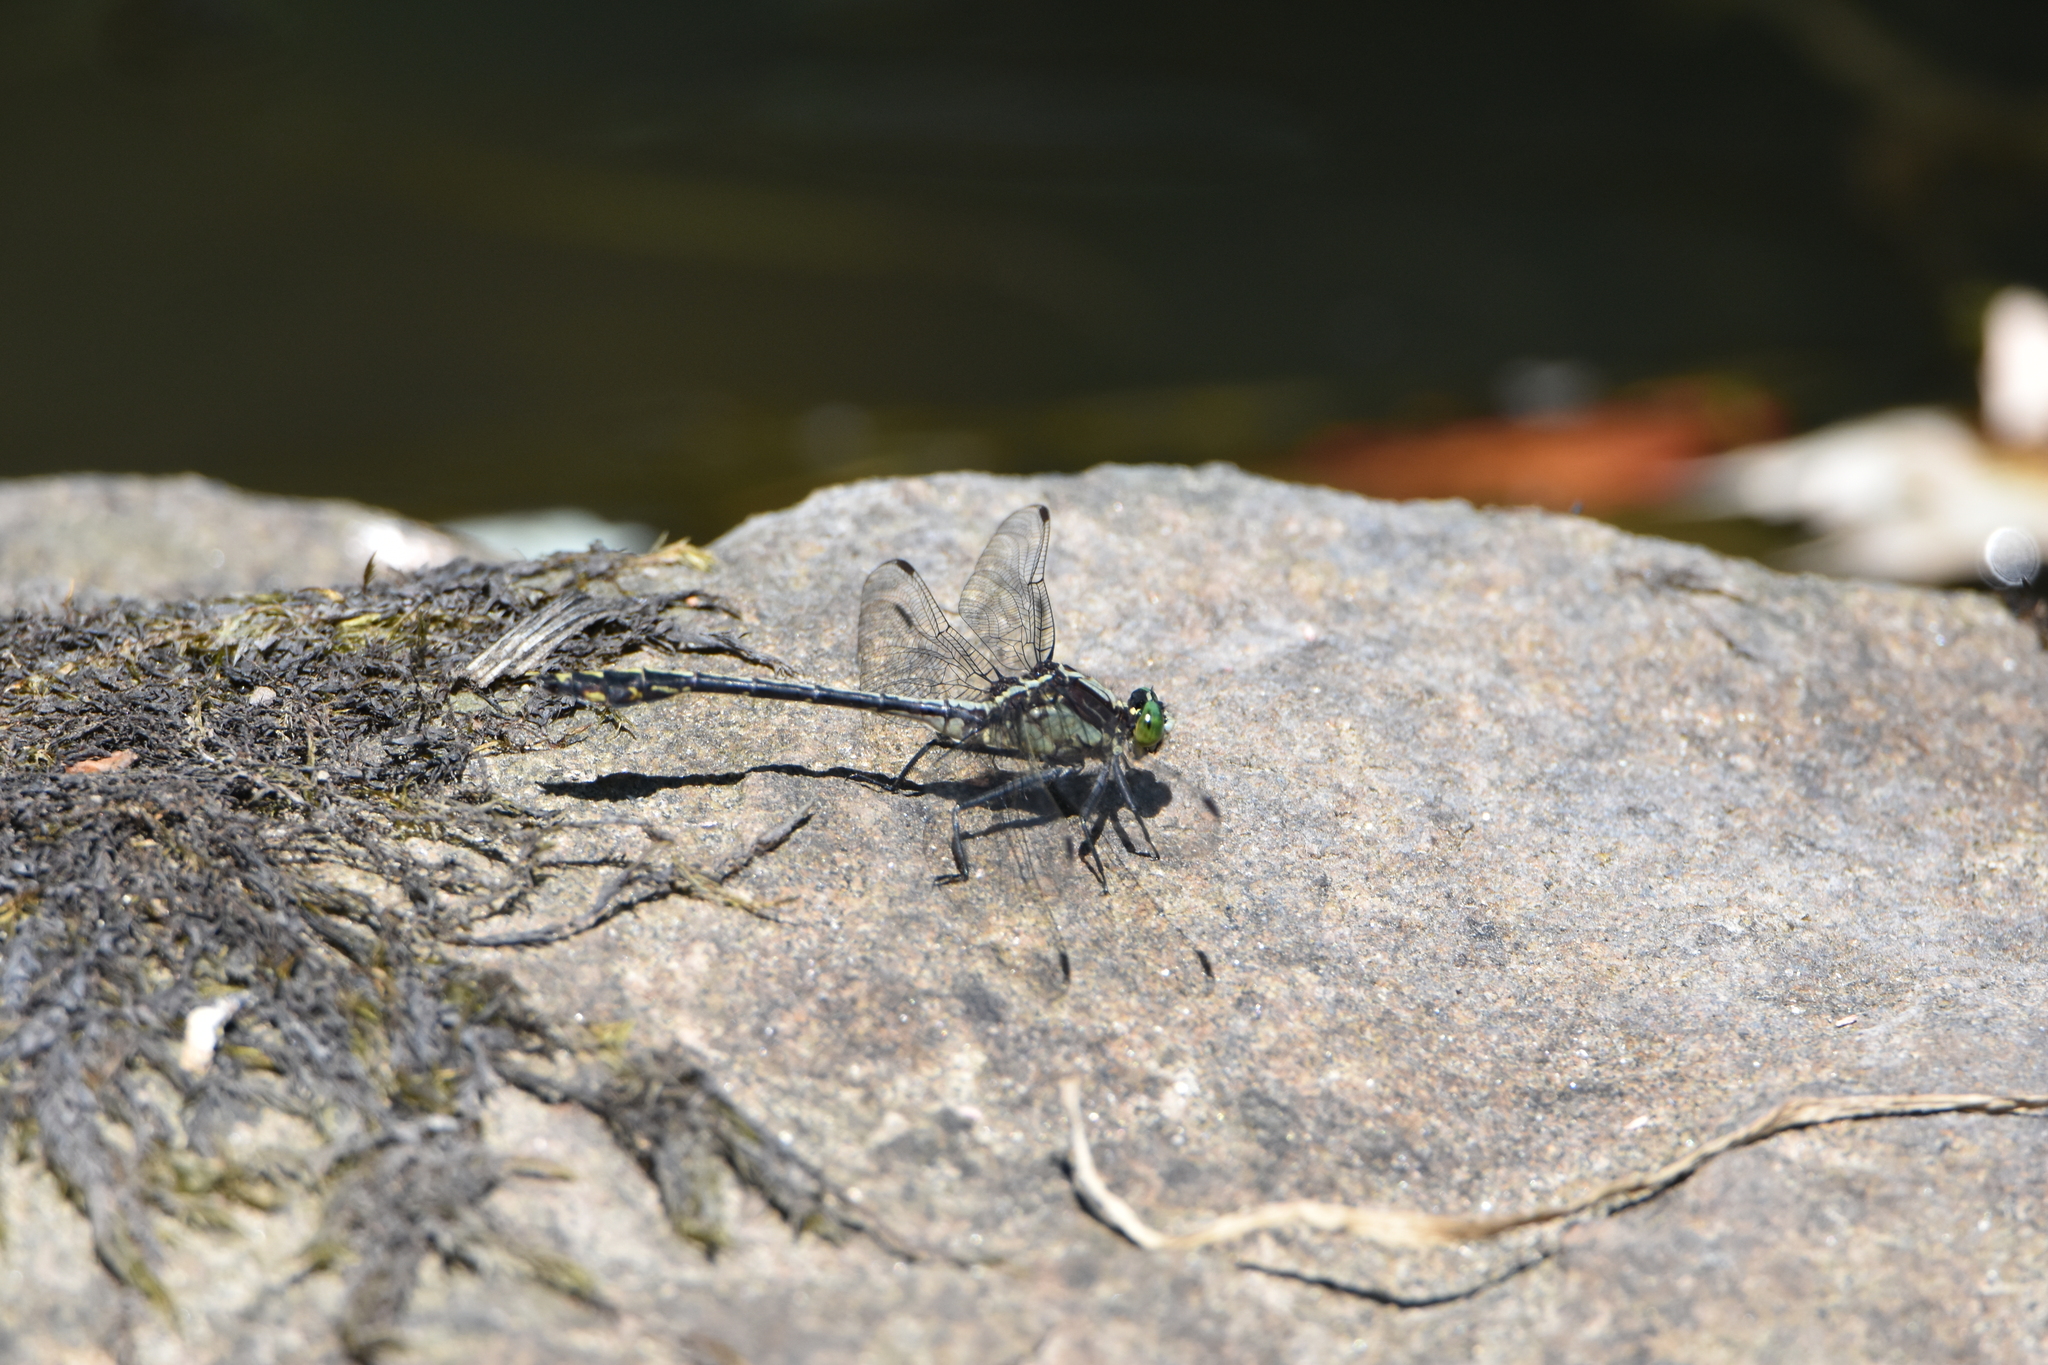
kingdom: Animalia
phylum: Arthropoda
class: Insecta
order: Odonata
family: Gomphidae
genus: Dromogomphus
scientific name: Dromogomphus spinosus
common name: Black-shouldered spinyleg
